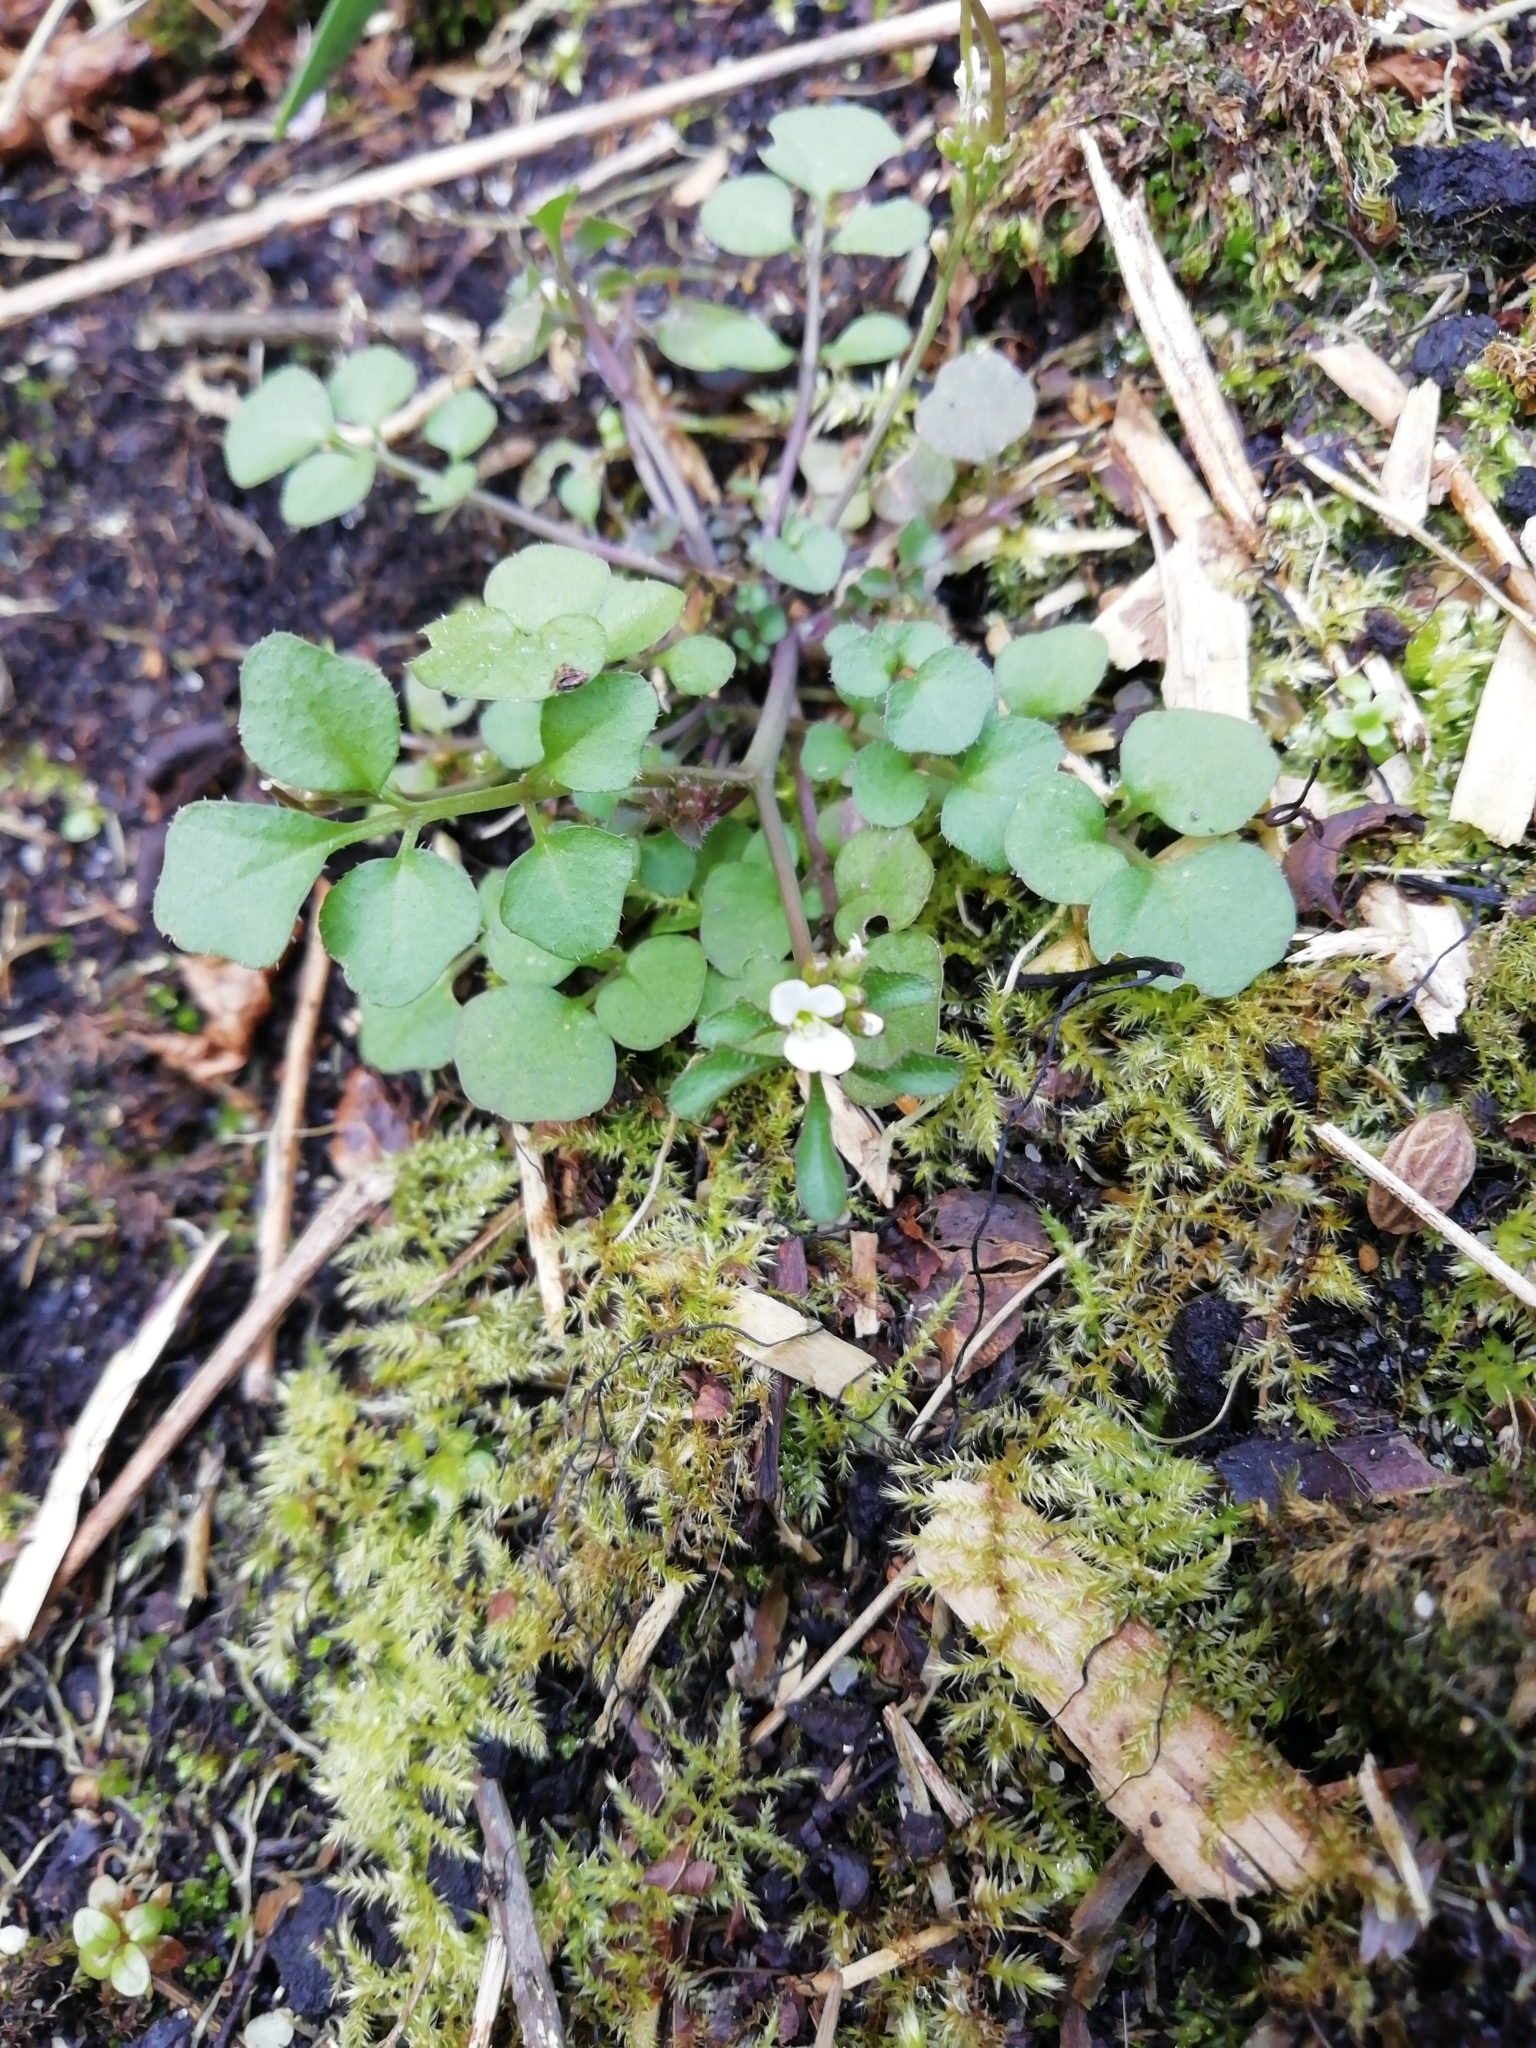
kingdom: Plantae
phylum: Tracheophyta
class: Magnoliopsida
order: Brassicales
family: Brassicaceae
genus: Cardamine
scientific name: Cardamine hirsuta
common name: Hairy bittercress
